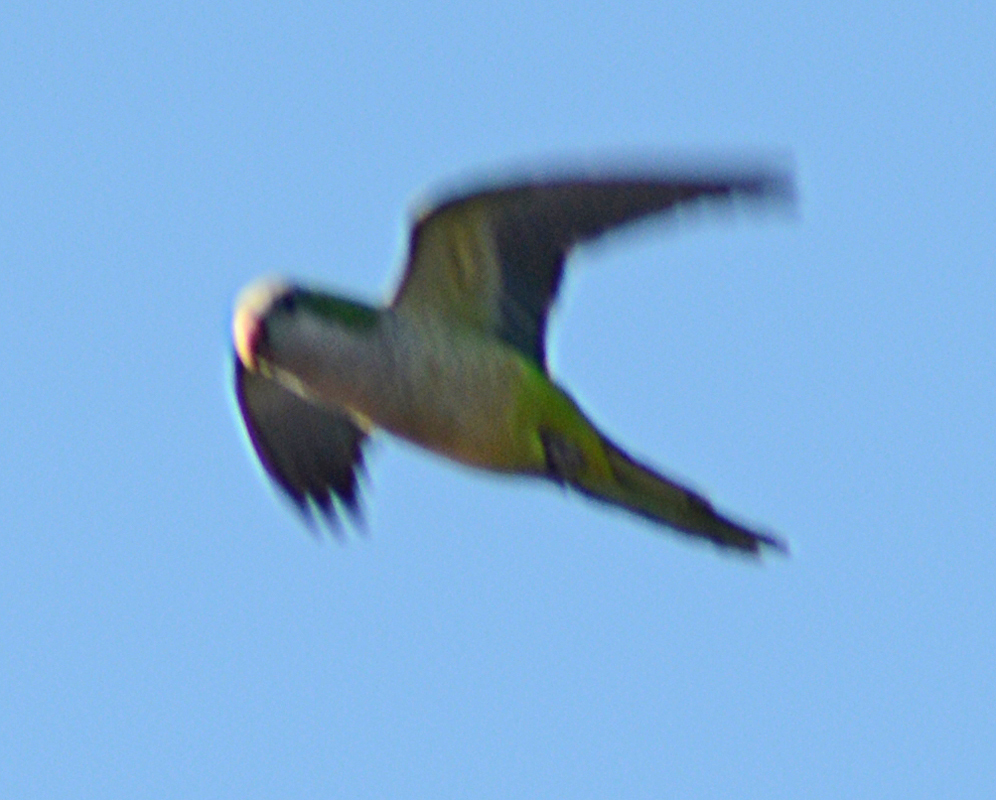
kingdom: Animalia
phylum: Chordata
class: Aves
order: Psittaciformes
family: Psittacidae
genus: Myiopsitta
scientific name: Myiopsitta monachus
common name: Monk parakeet
